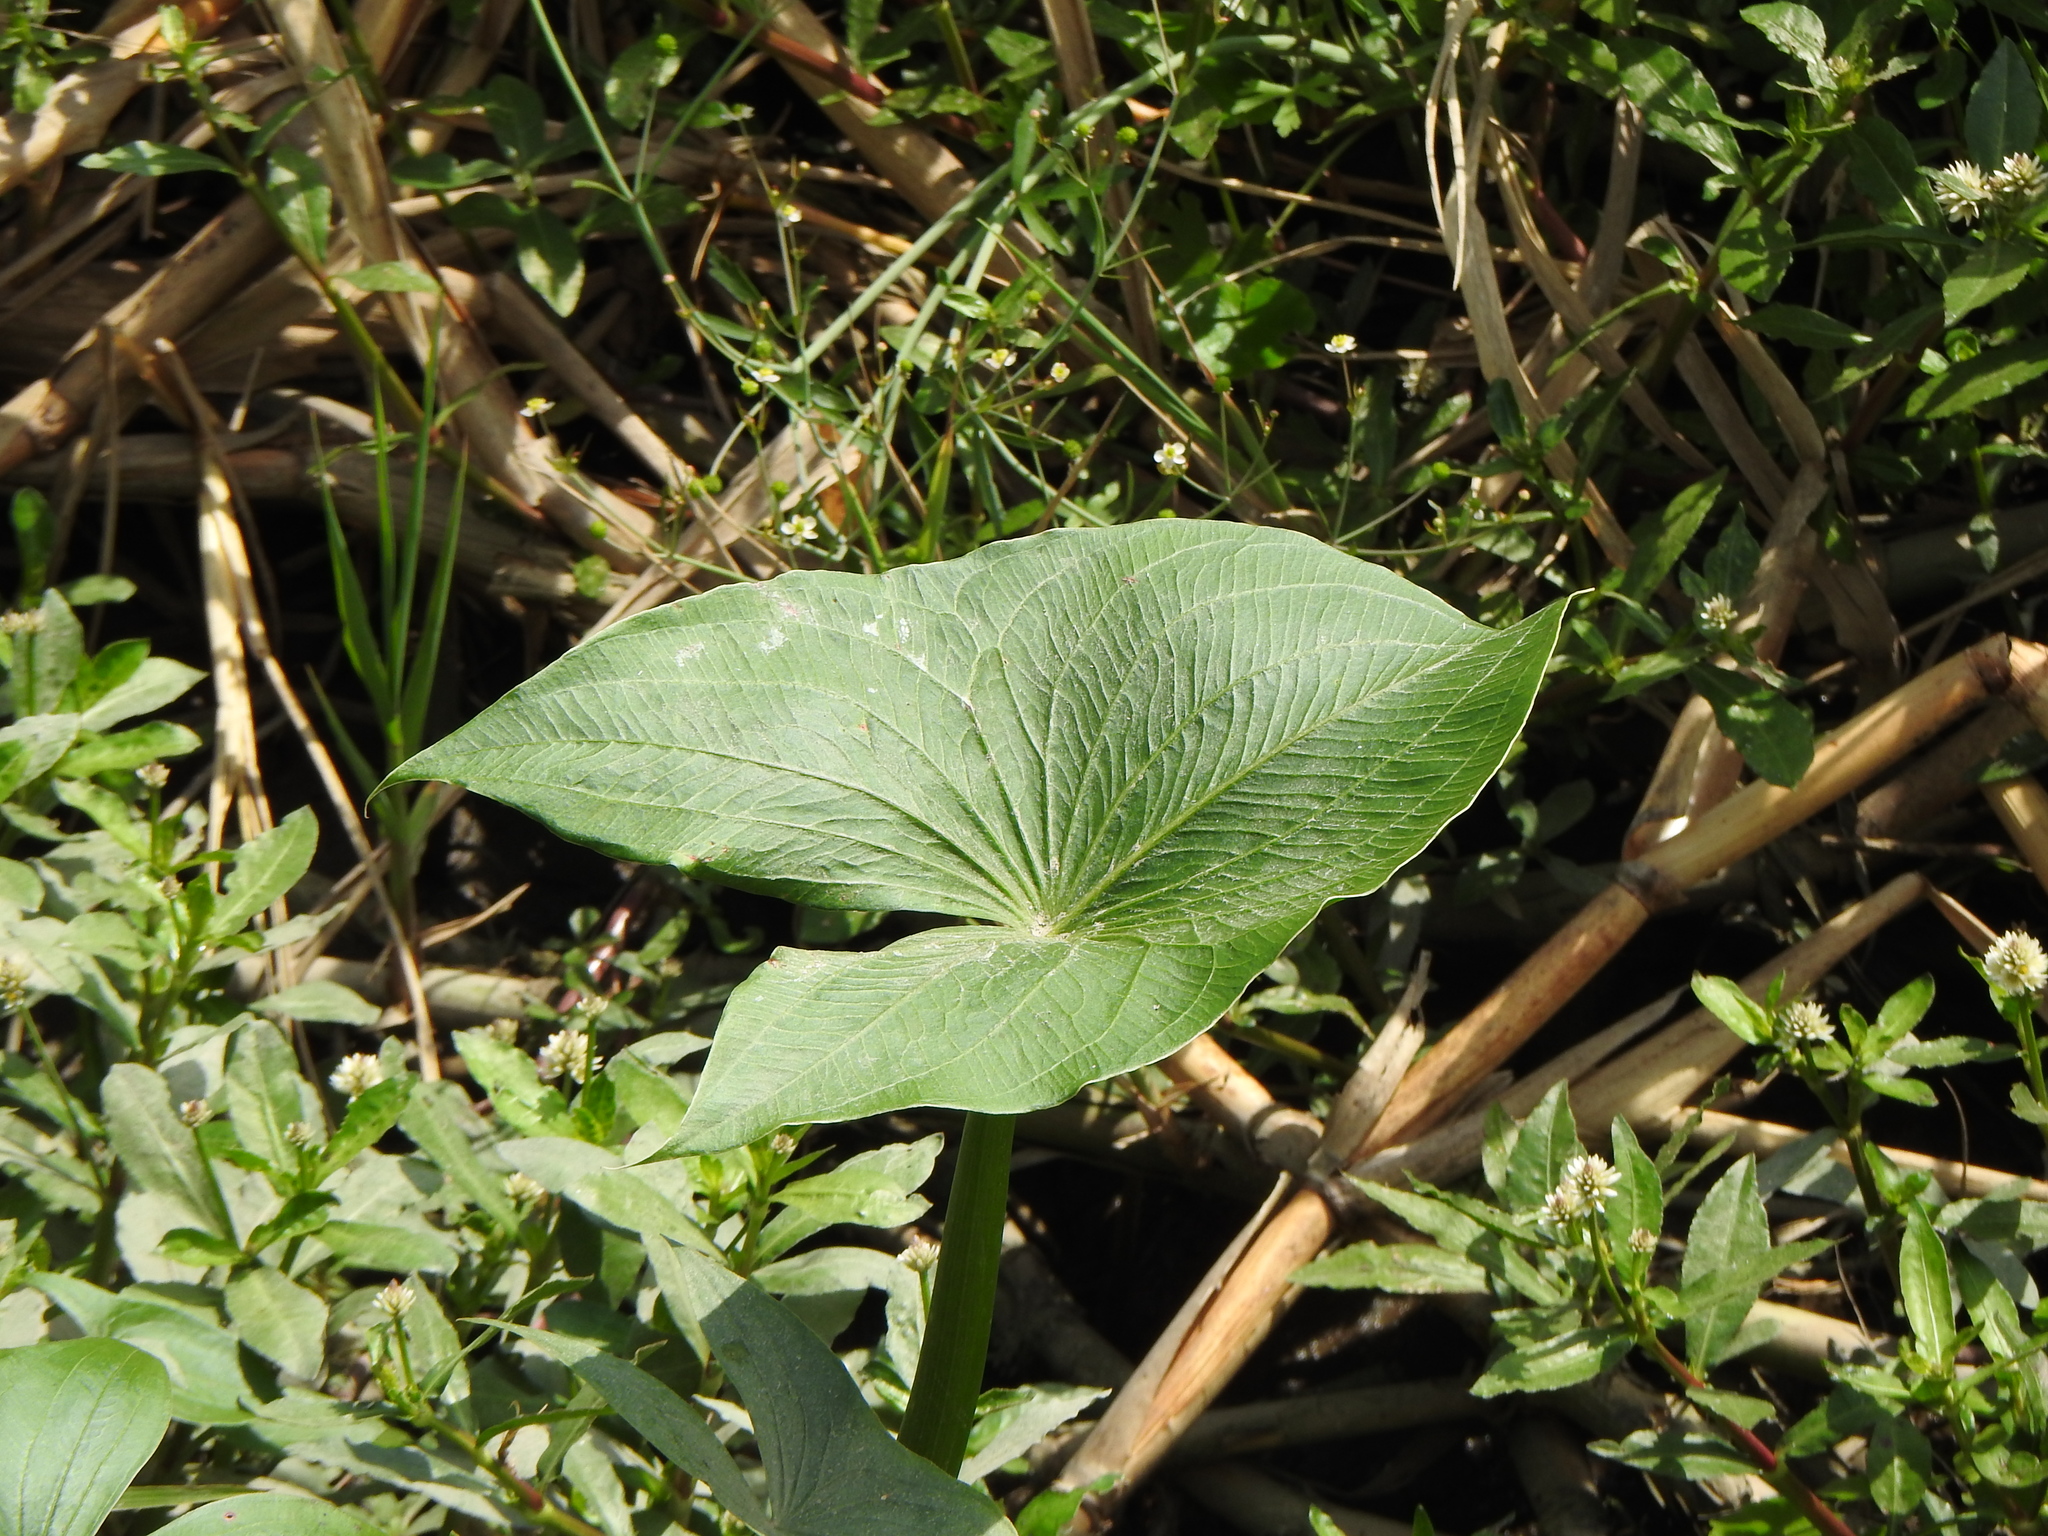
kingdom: Plantae
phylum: Tracheophyta
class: Liliopsida
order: Alismatales
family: Alismataceae
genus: Sagittaria
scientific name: Sagittaria montevidensis
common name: Giant arrowhead
